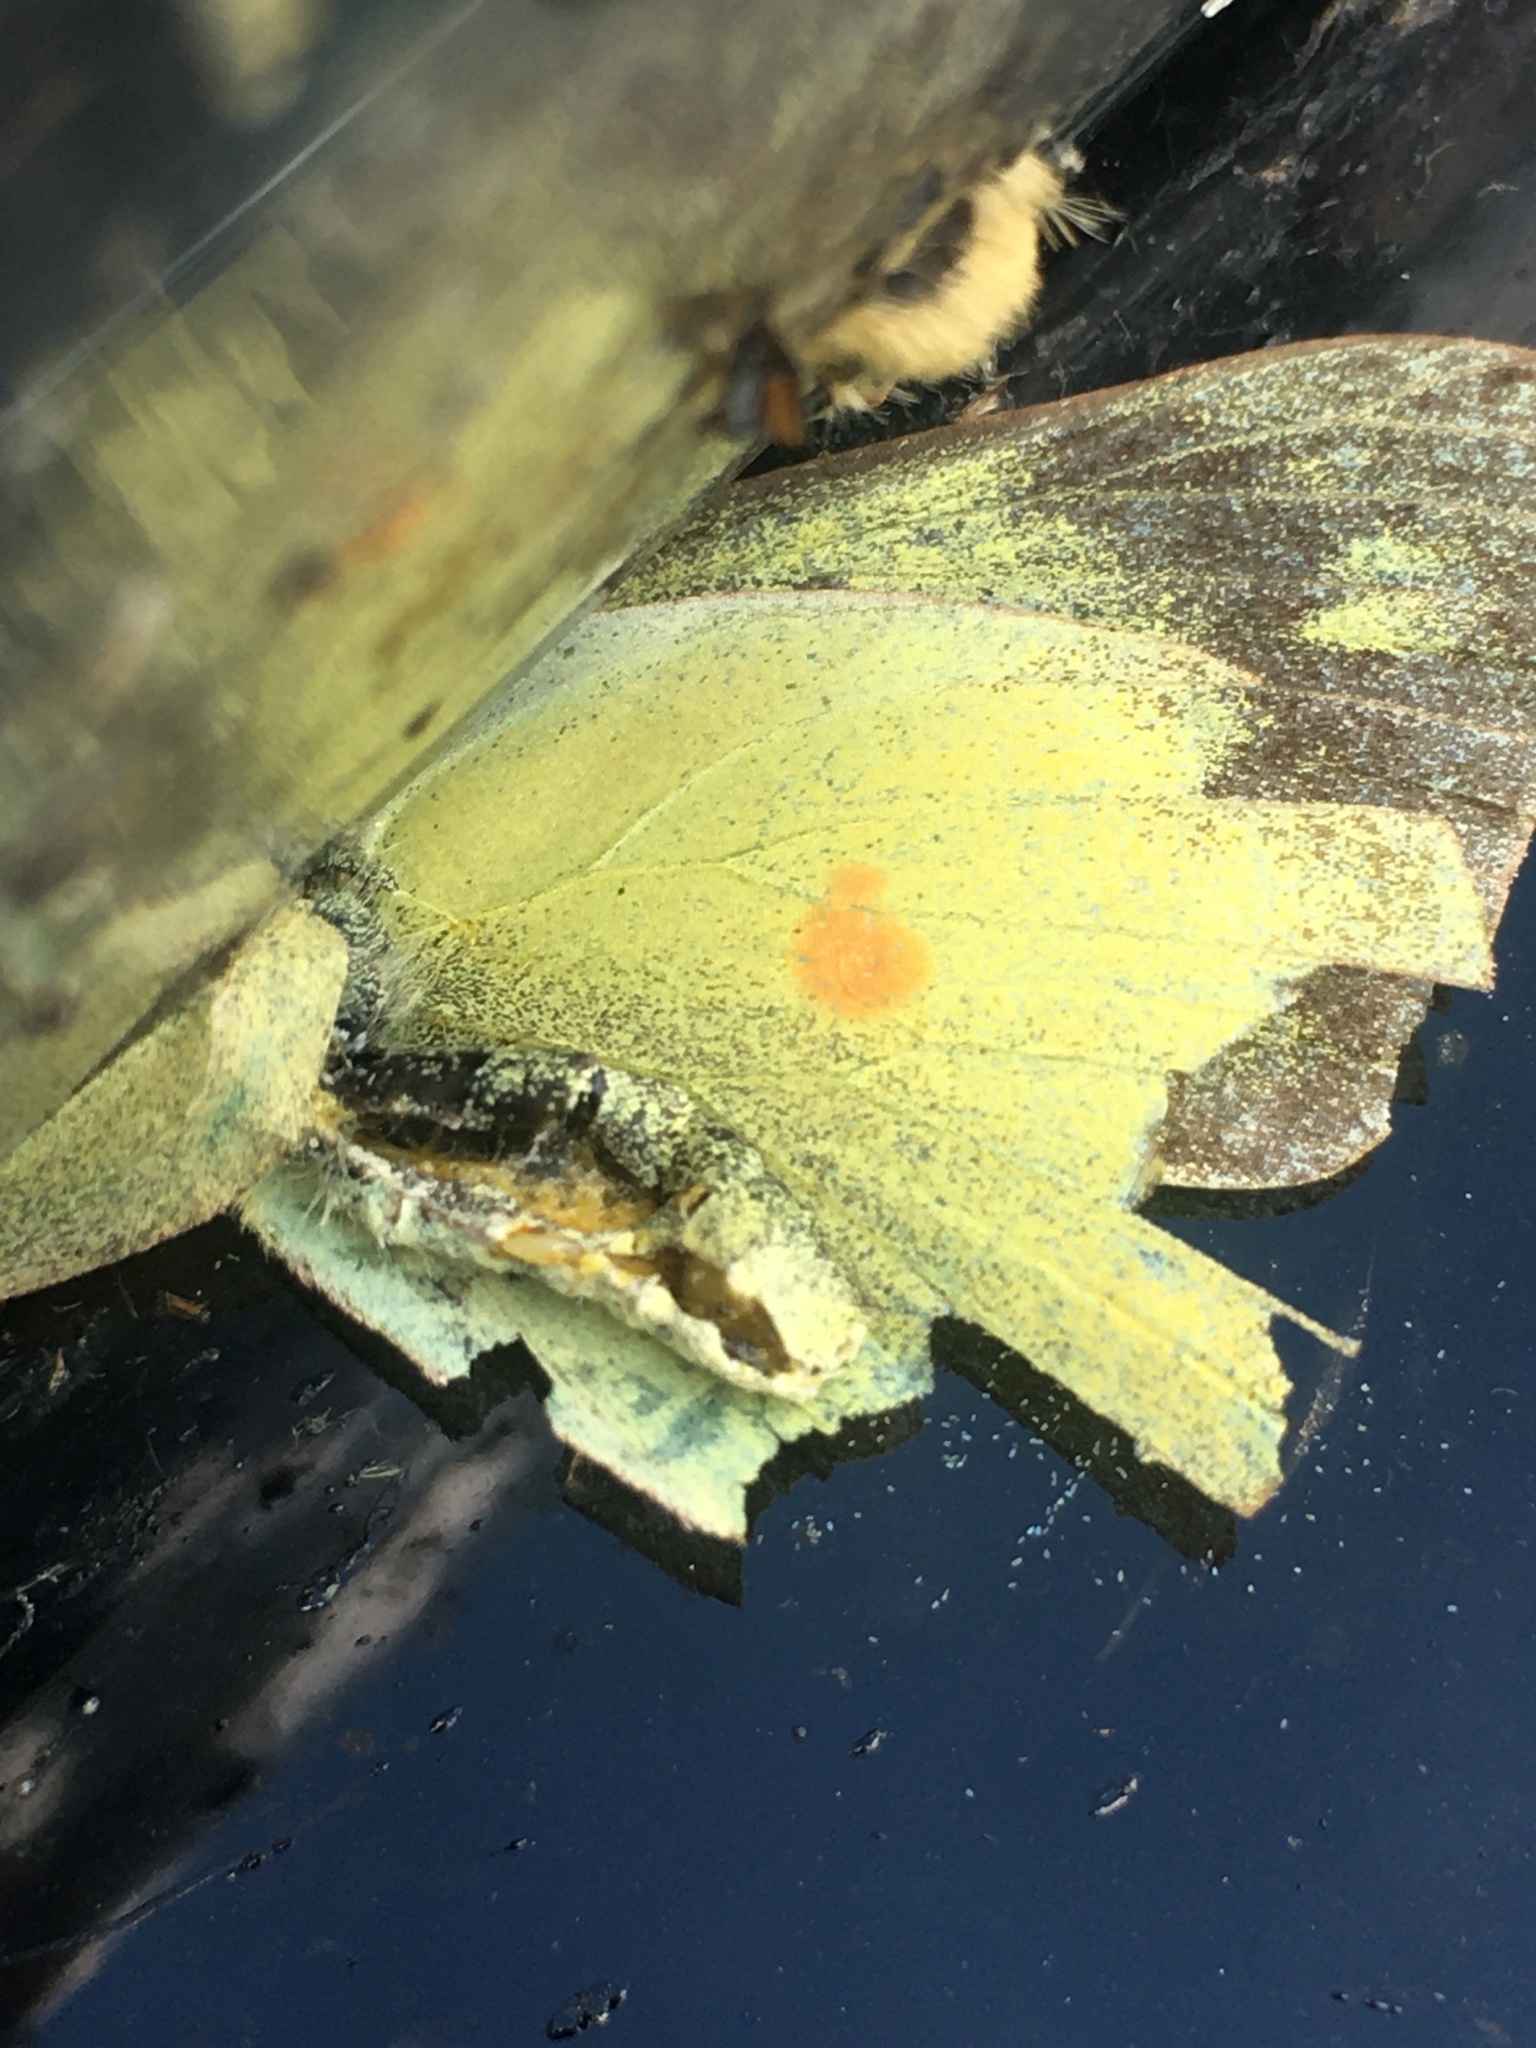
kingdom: Animalia
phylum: Arthropoda
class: Insecta
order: Lepidoptera
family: Pieridae
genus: Colias
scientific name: Colias philodice
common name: Clouded sulphur
